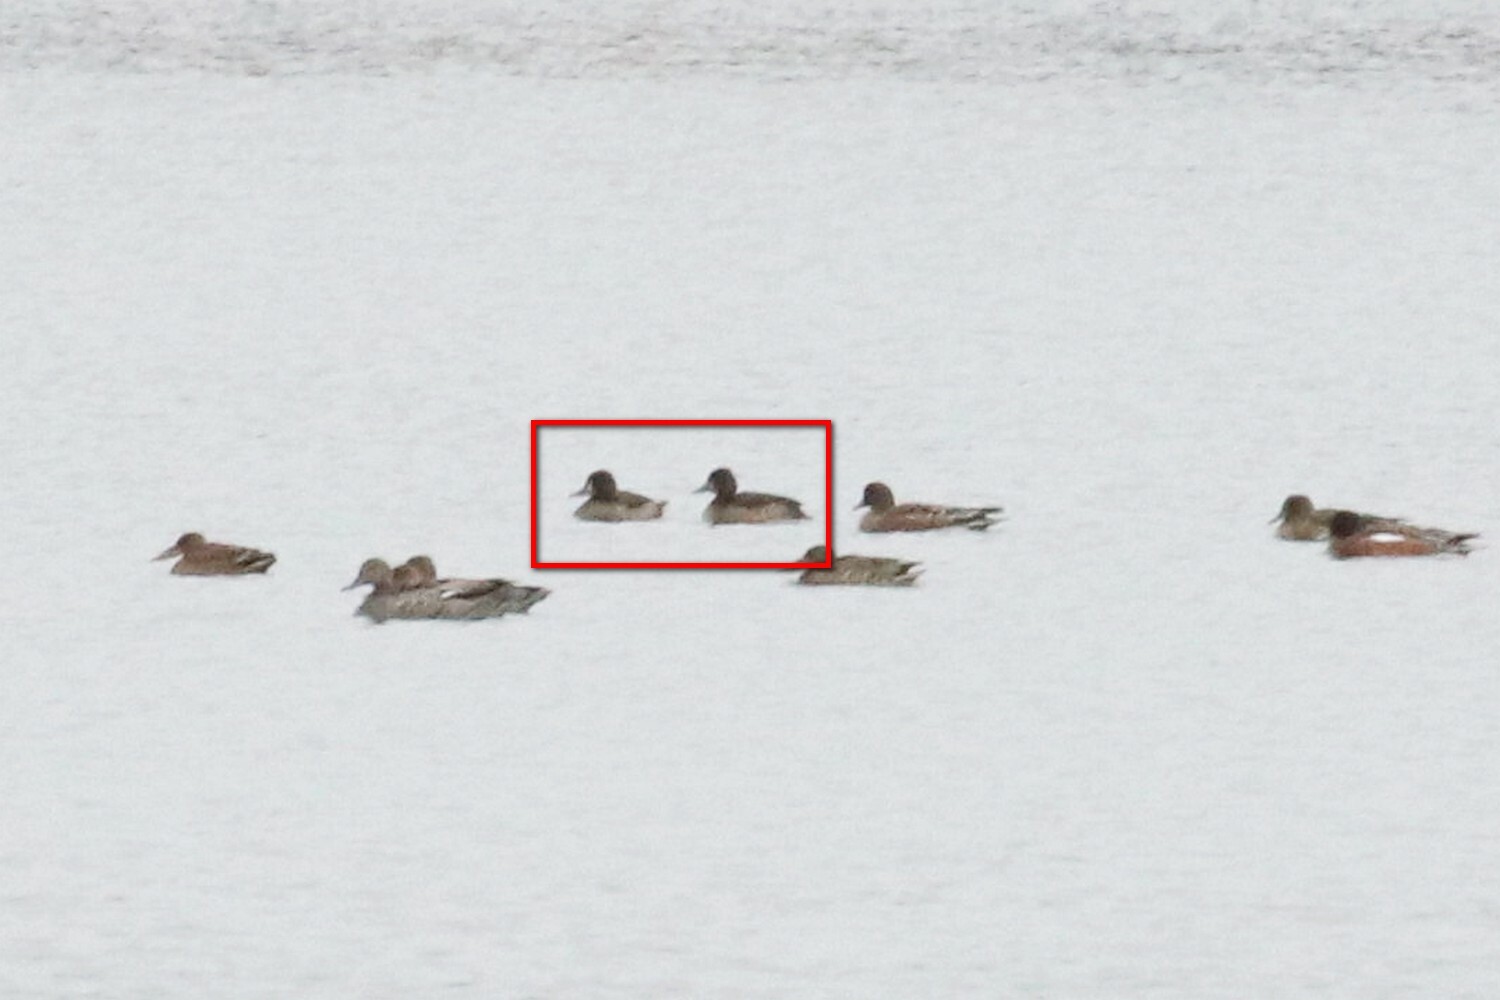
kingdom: Animalia
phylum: Chordata
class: Aves
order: Anseriformes
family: Anatidae
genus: Aythya
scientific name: Aythya fuligula
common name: Tufted duck
